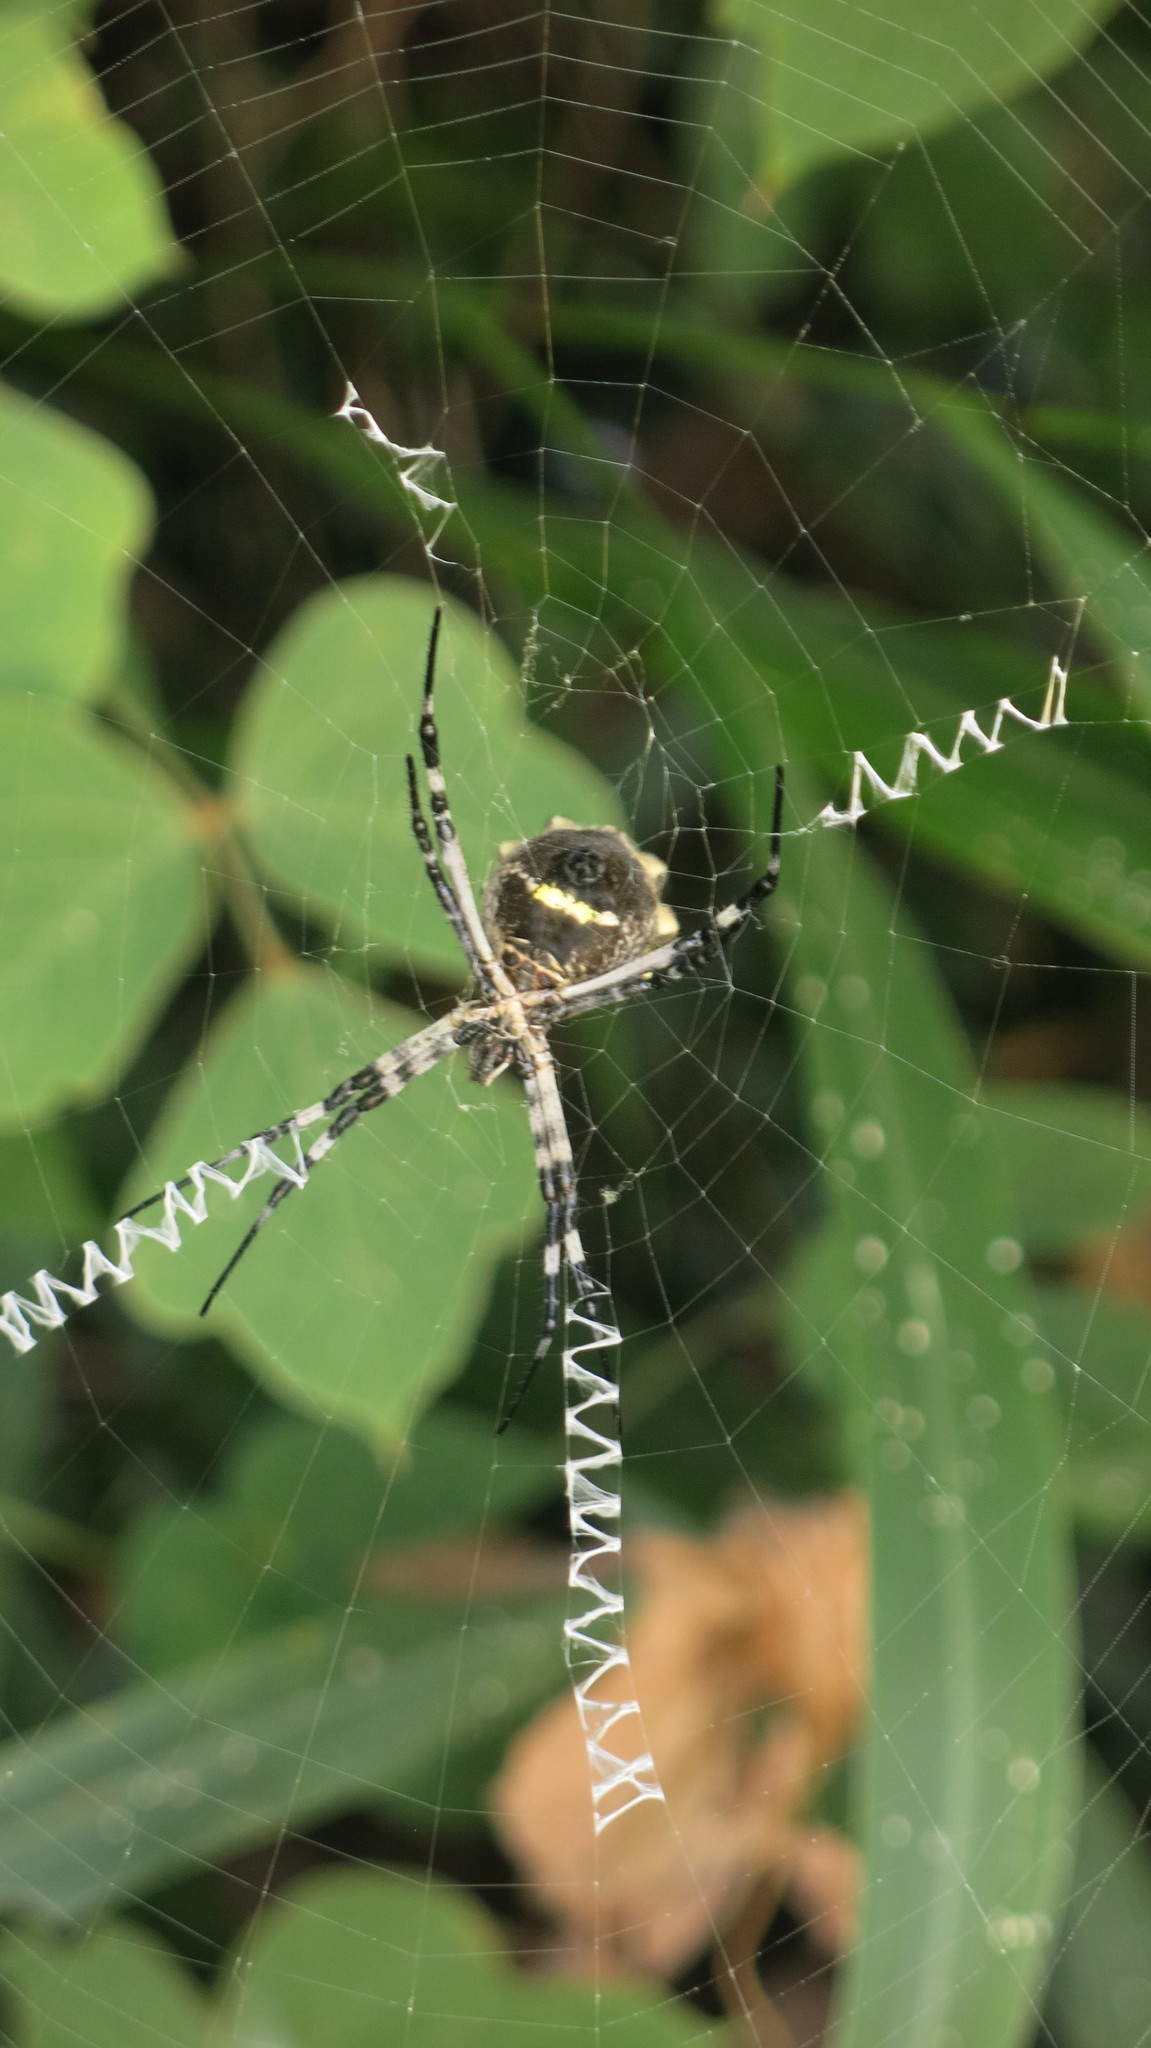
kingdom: Animalia
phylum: Arthropoda
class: Arachnida
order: Araneae
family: Araneidae
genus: Argiope
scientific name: Argiope argentata
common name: Orb weavers
